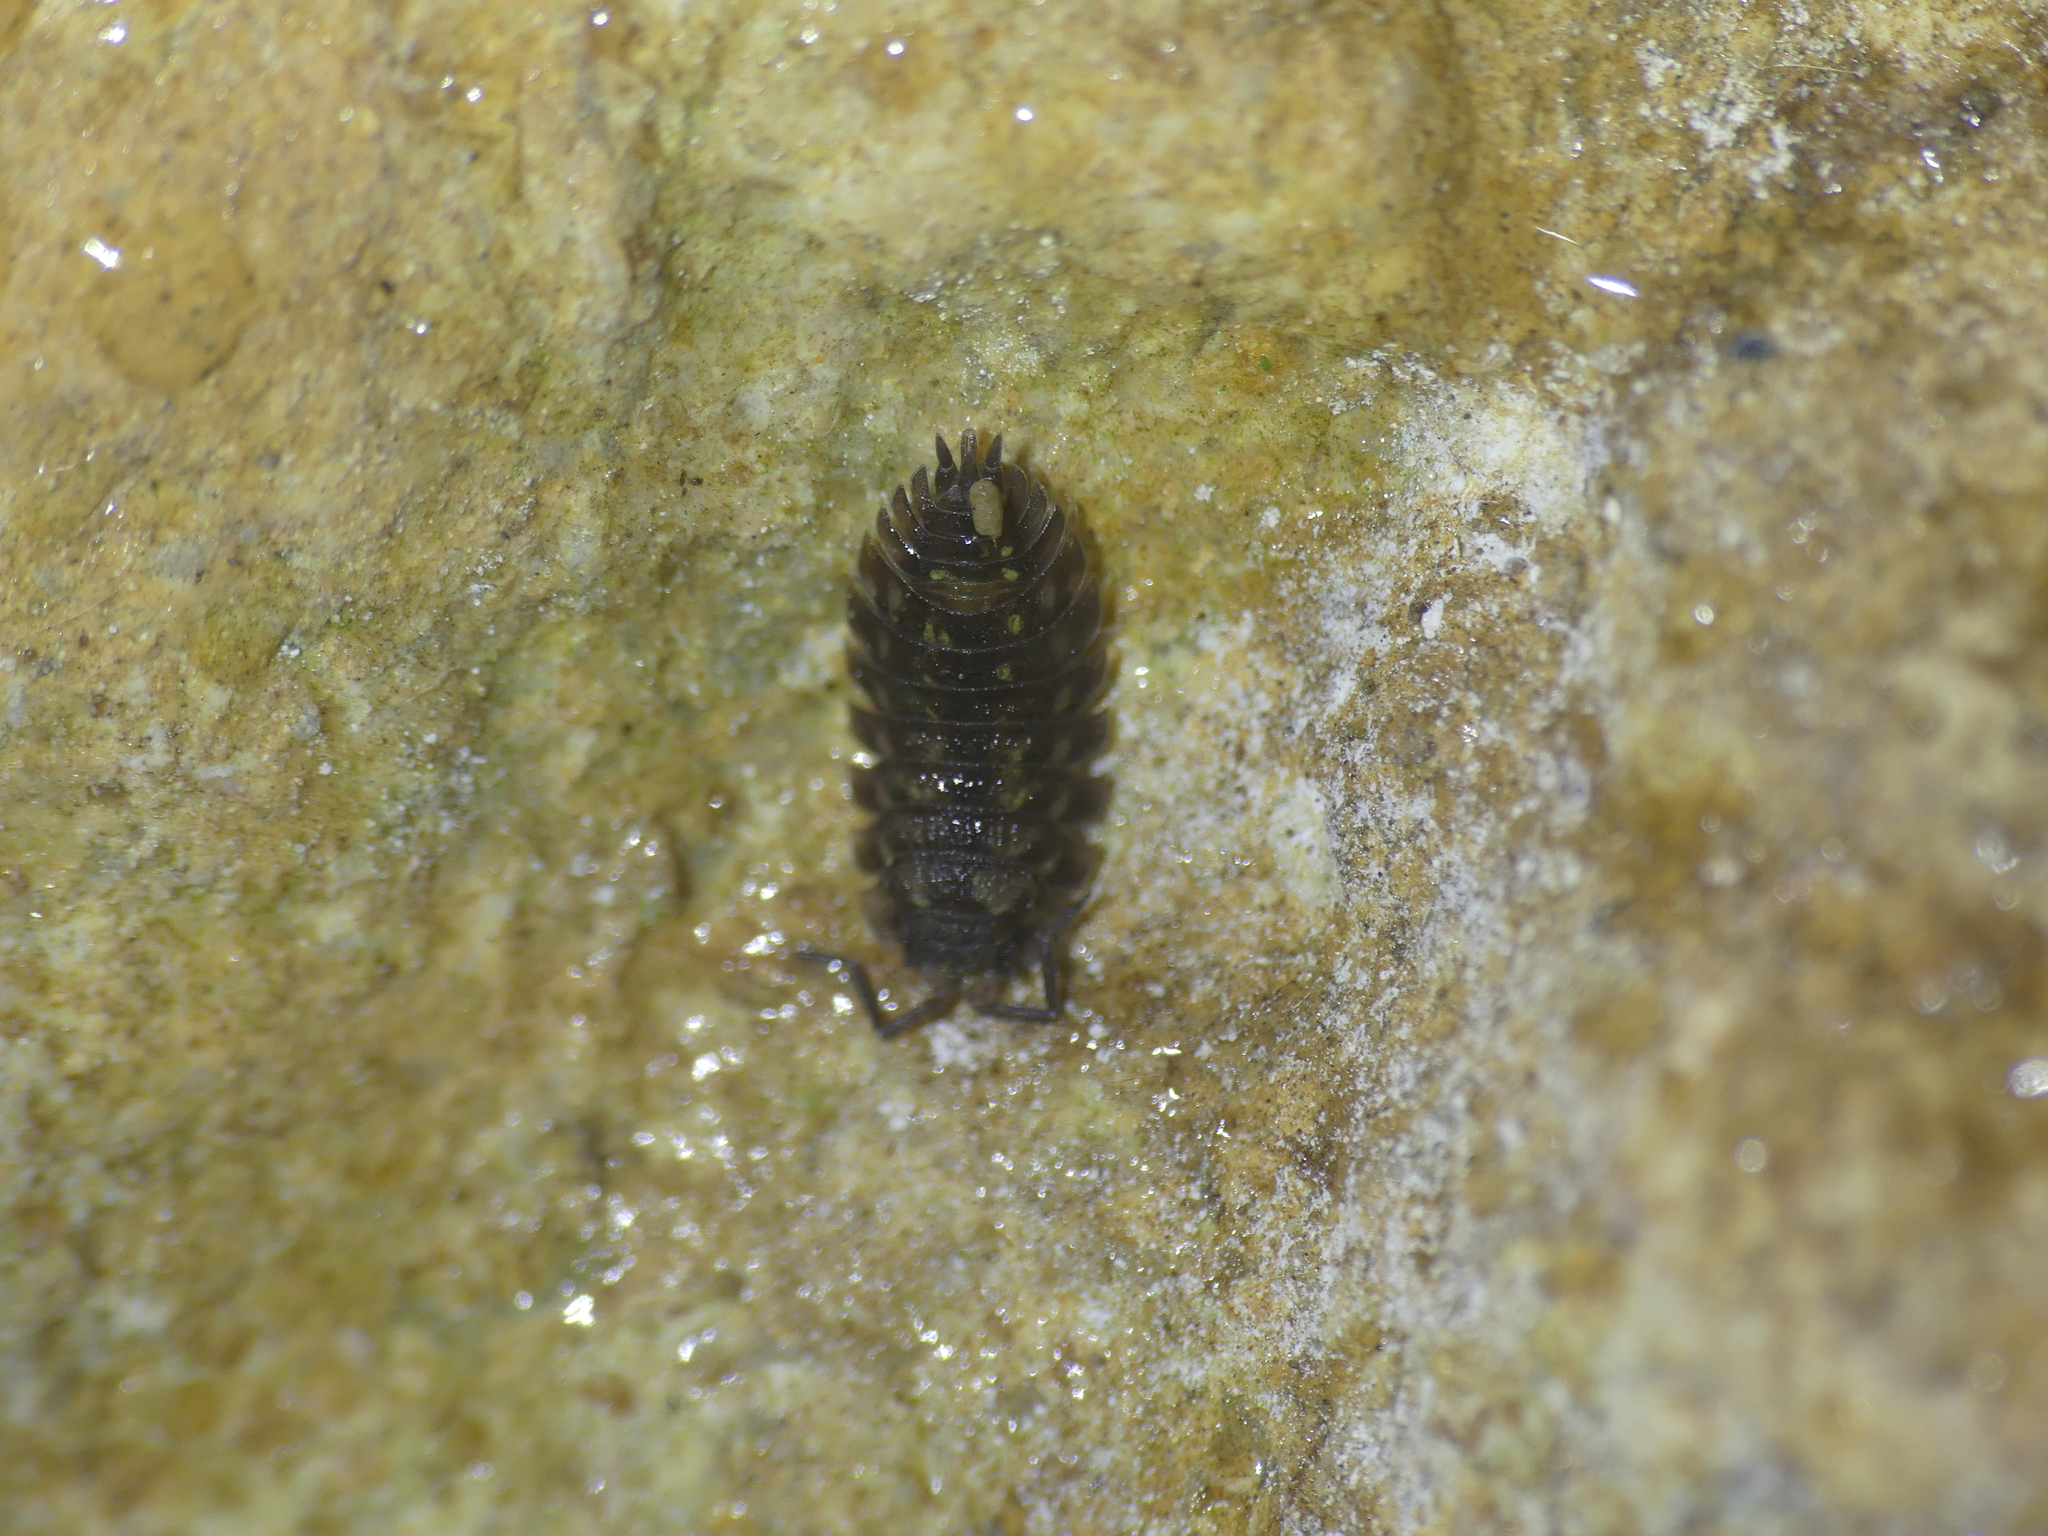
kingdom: Animalia
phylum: Arthropoda
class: Malacostraca
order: Isopoda
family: Oniscidae
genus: Oniscus
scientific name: Oniscus asellus
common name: Common shiny woodlouse
